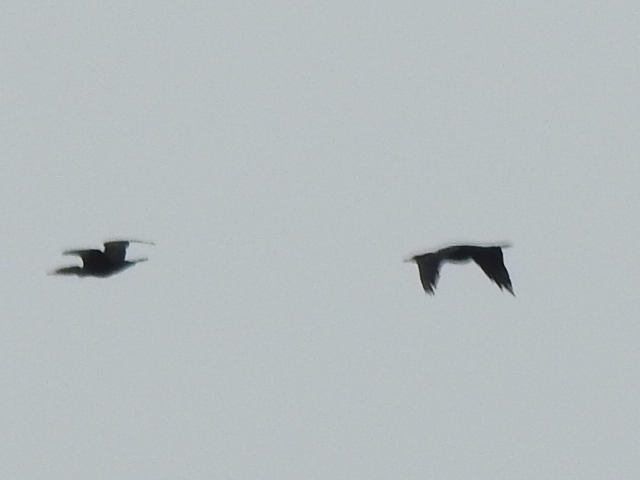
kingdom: Animalia
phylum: Chordata
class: Aves
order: Suliformes
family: Phalacrocoracidae
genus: Phalacrocorax
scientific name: Phalacrocorax auritus
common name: Double-crested cormorant
